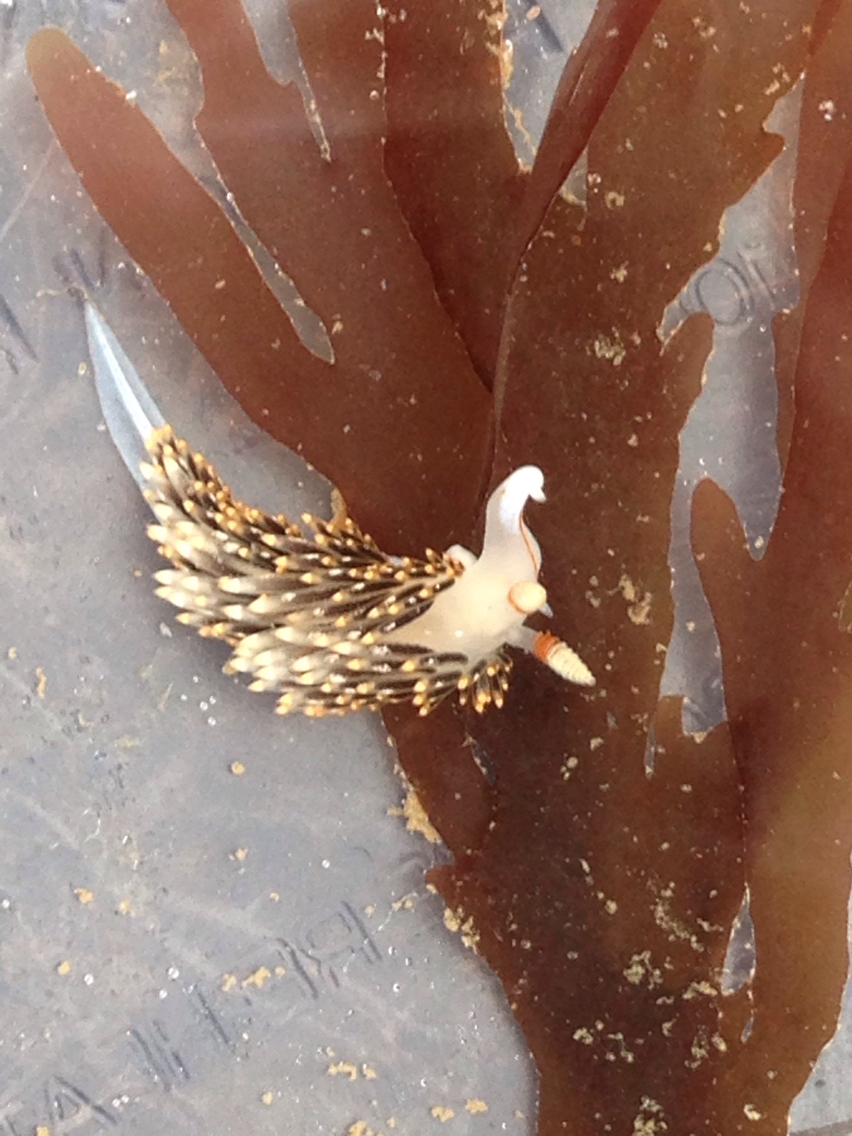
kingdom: Animalia
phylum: Mollusca
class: Gastropoda
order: Nudibranchia
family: Facelinidae
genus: Phidiana
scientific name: Phidiana hiltoni
